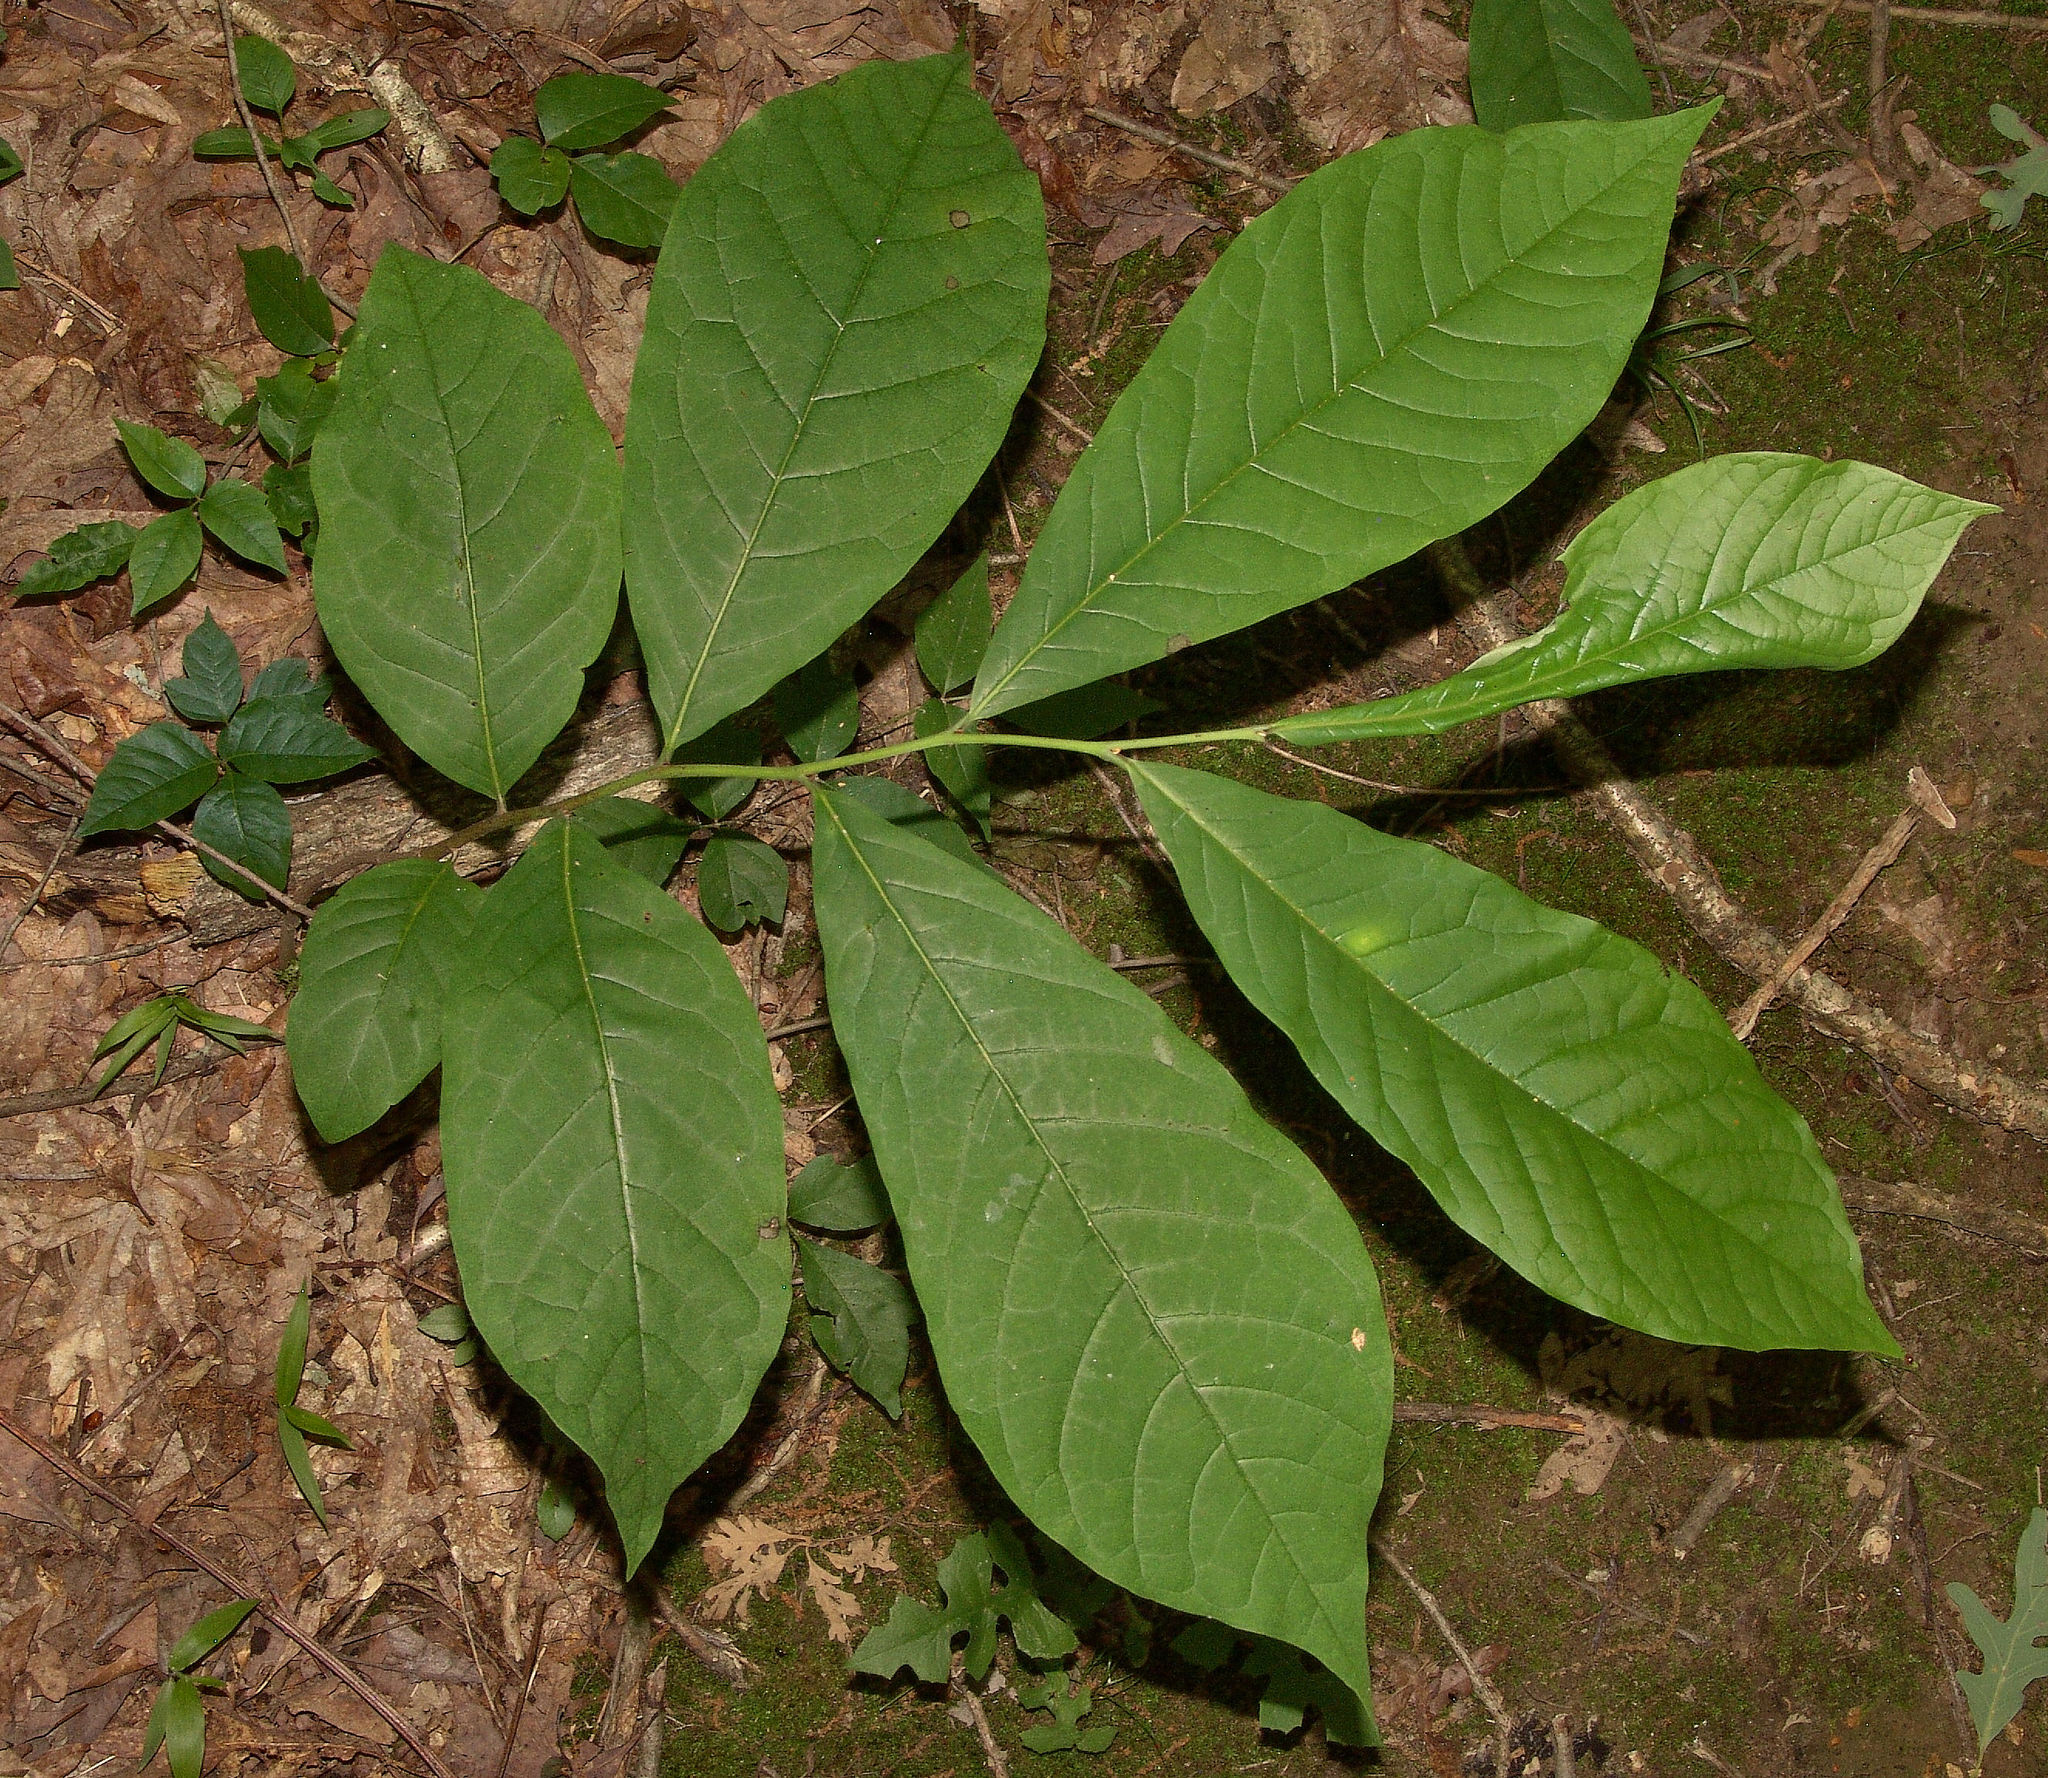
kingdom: Plantae
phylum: Tracheophyta
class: Magnoliopsida
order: Magnoliales
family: Annonaceae
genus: Asimina
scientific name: Asimina triloba
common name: Dog-banana
